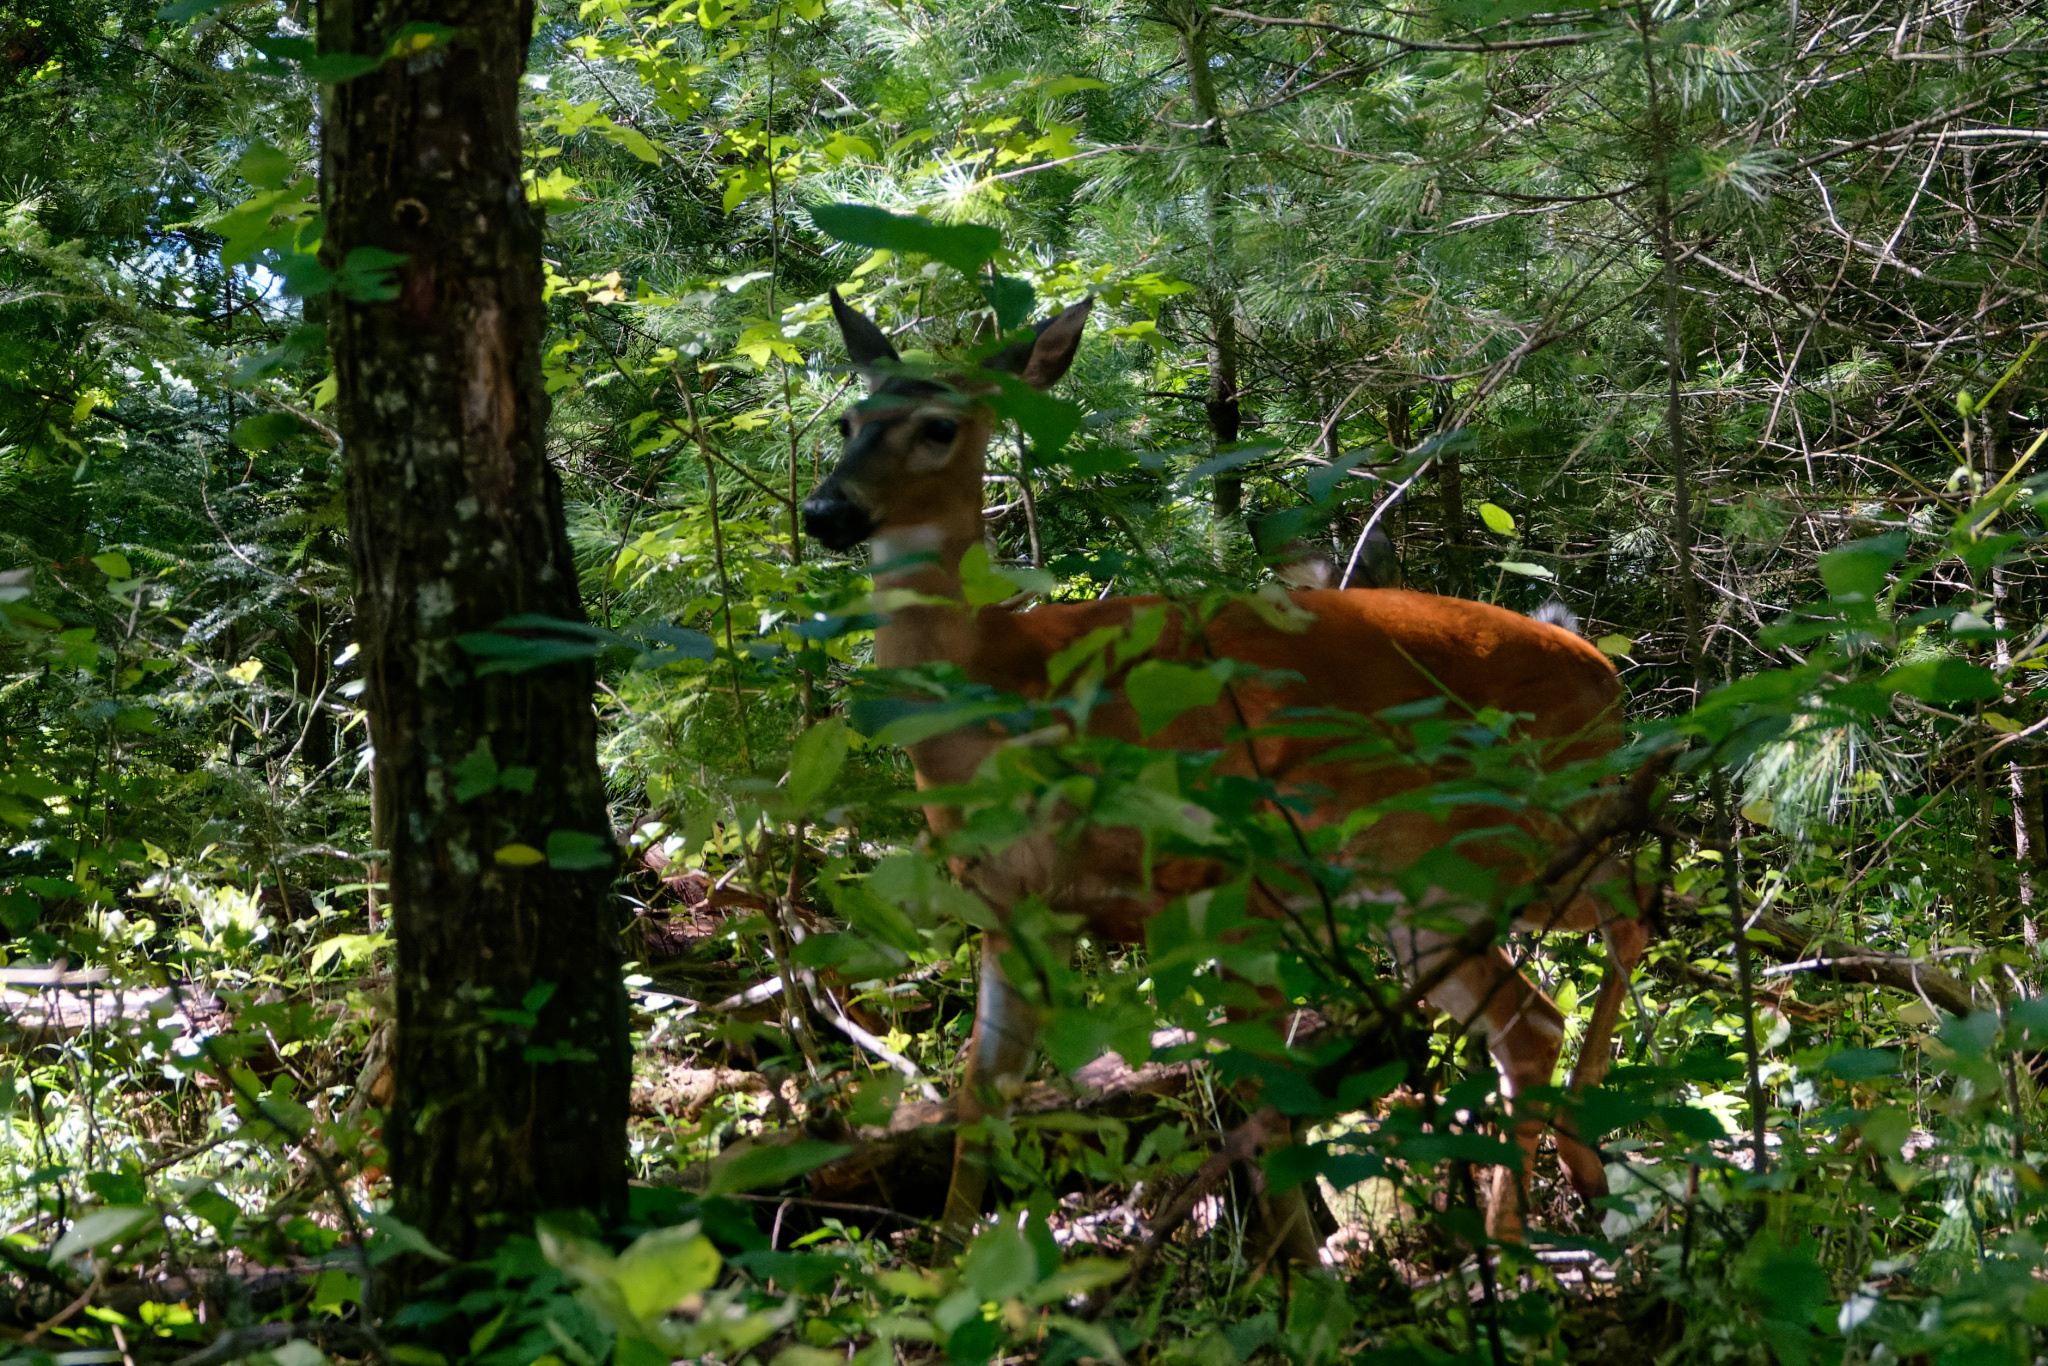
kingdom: Animalia
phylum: Chordata
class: Mammalia
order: Artiodactyla
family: Cervidae
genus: Odocoileus
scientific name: Odocoileus virginianus
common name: White-tailed deer
